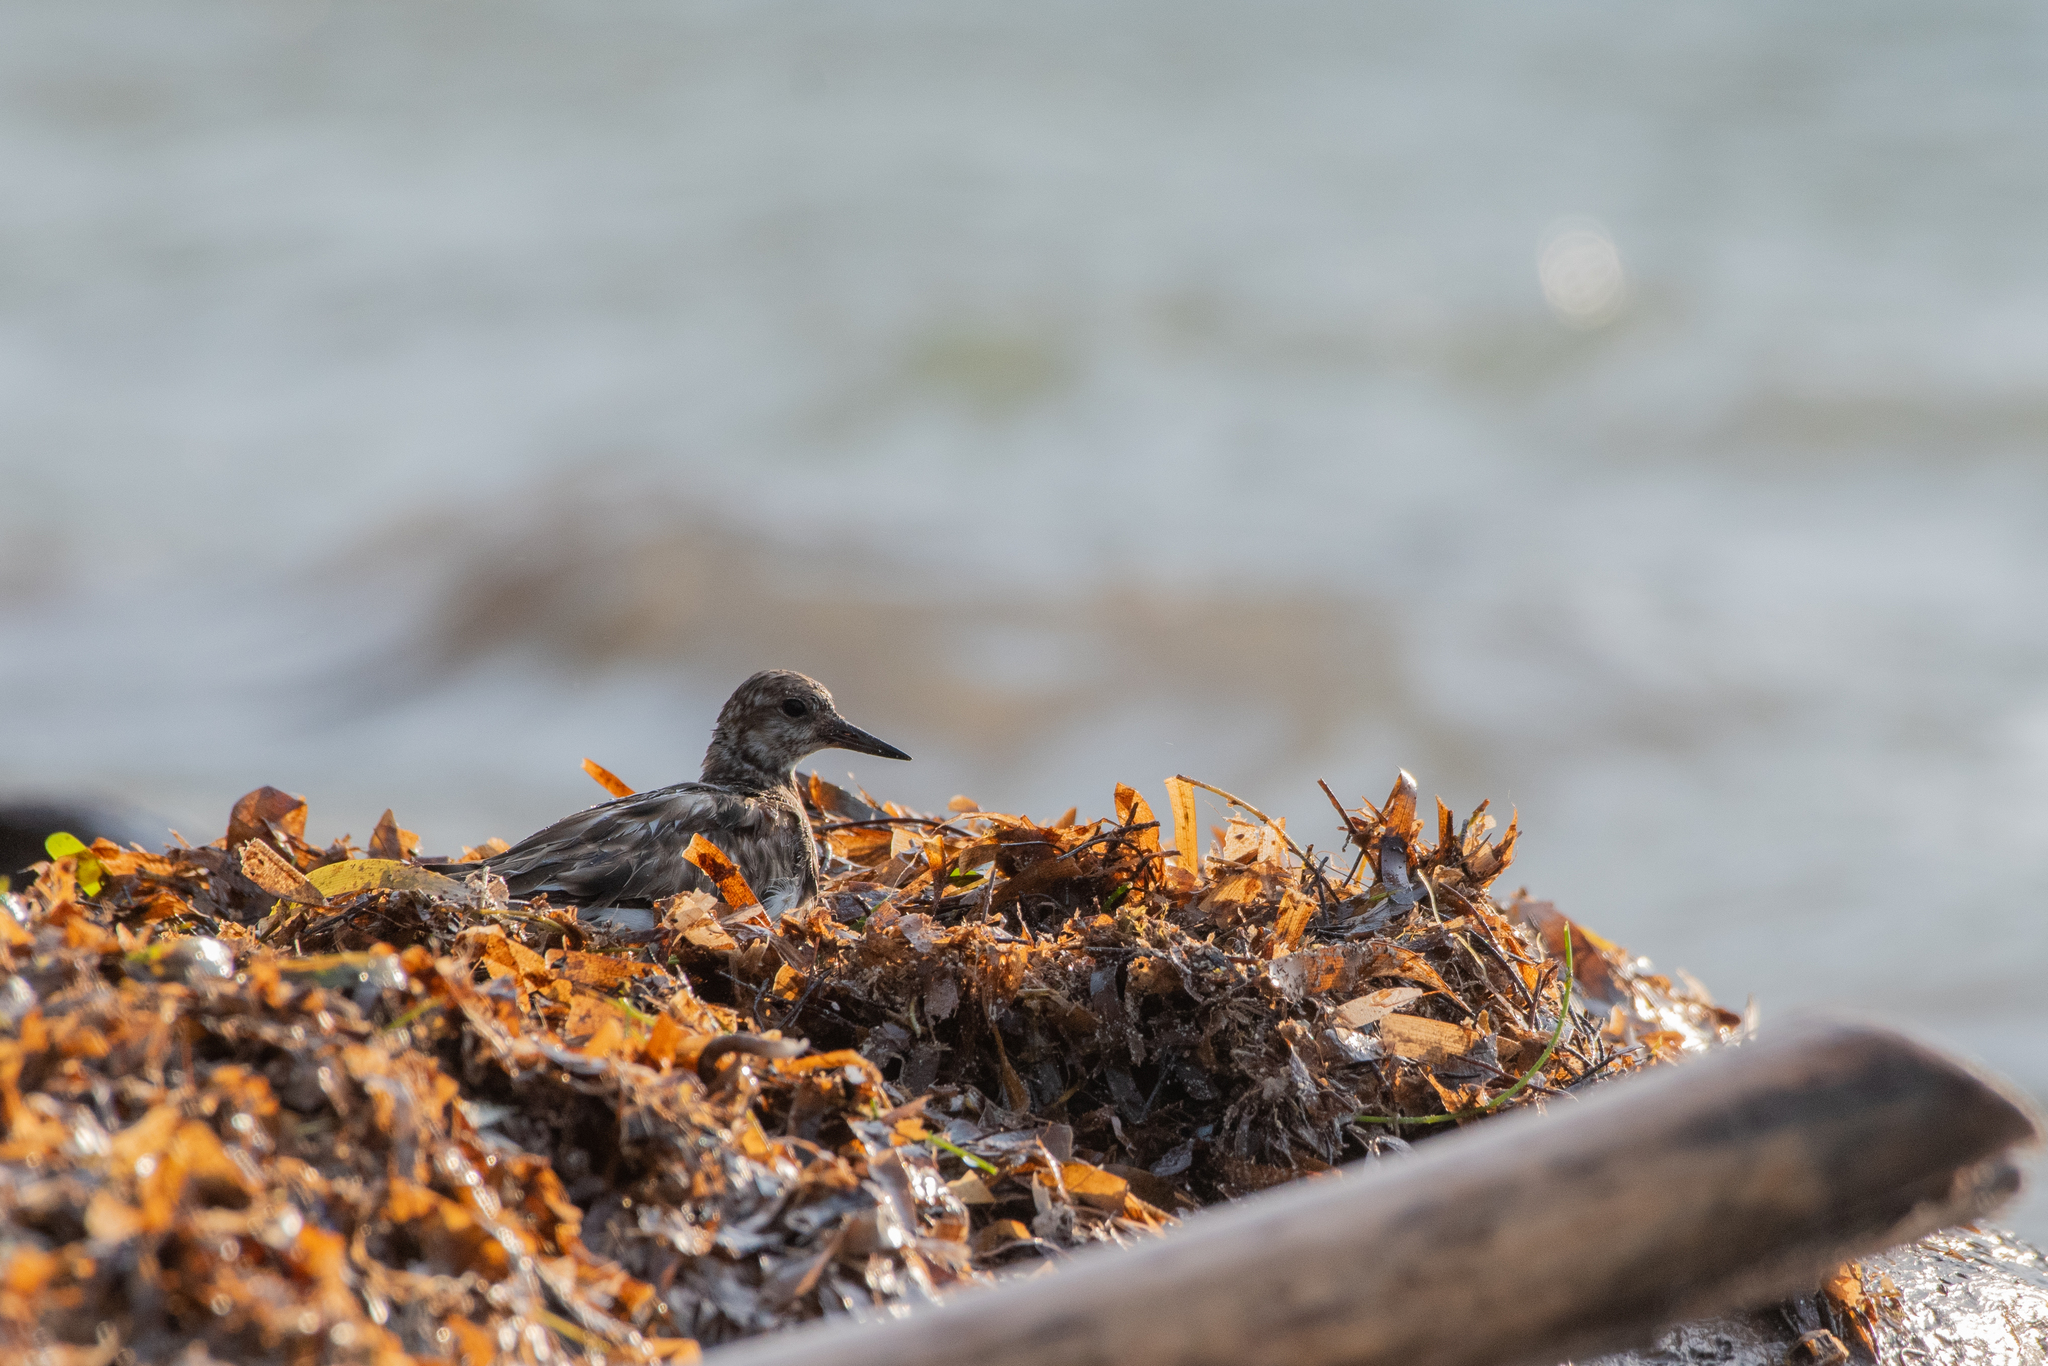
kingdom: Animalia
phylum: Chordata
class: Aves
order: Charadriiformes
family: Scolopacidae
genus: Arenaria
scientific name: Arenaria interpres
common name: Ruddy turnstone
